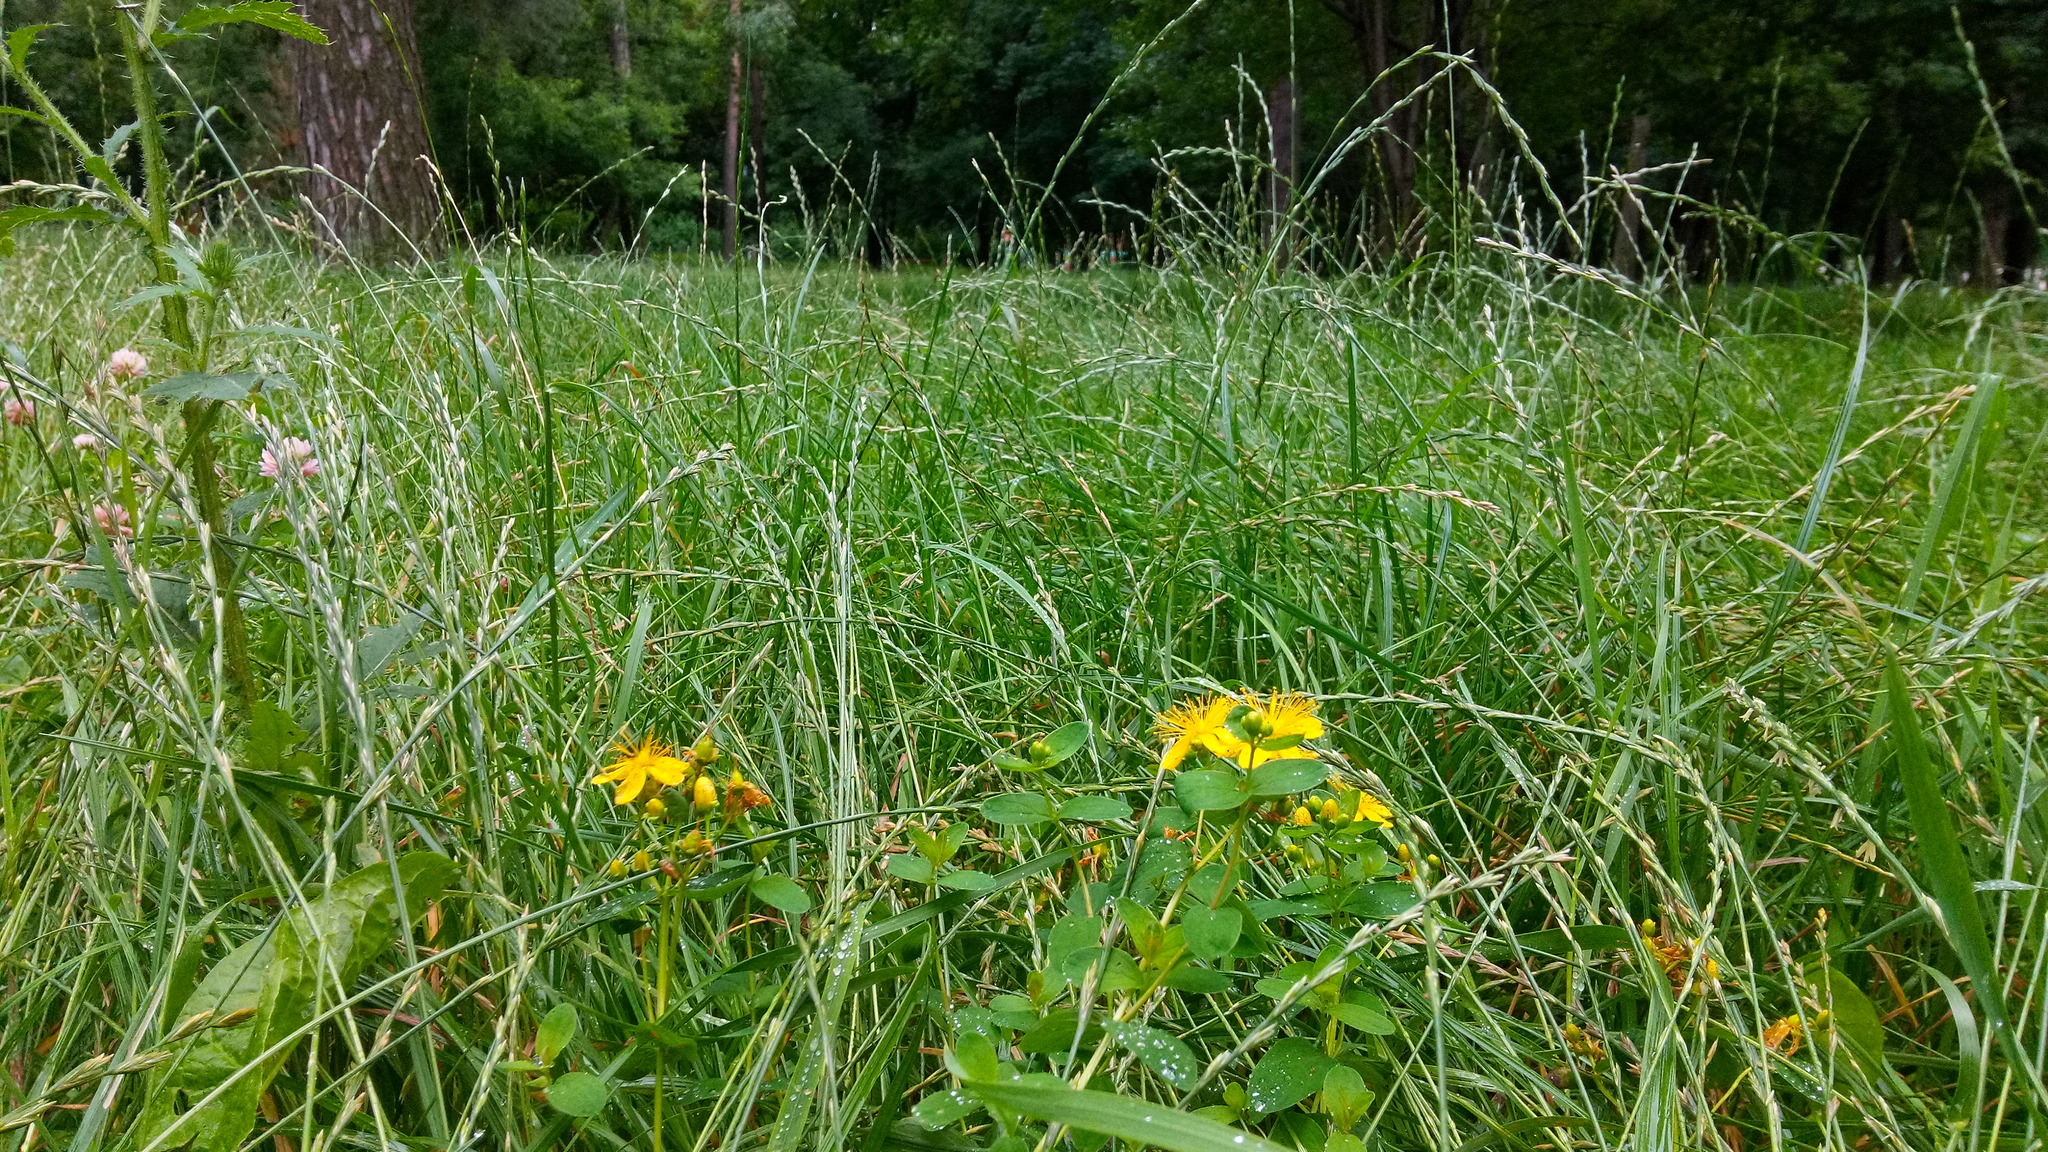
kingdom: Plantae
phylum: Tracheophyta
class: Magnoliopsida
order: Malpighiales
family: Hypericaceae
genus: Hypericum
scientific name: Hypericum maculatum
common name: Imperforate st. john's-wort
